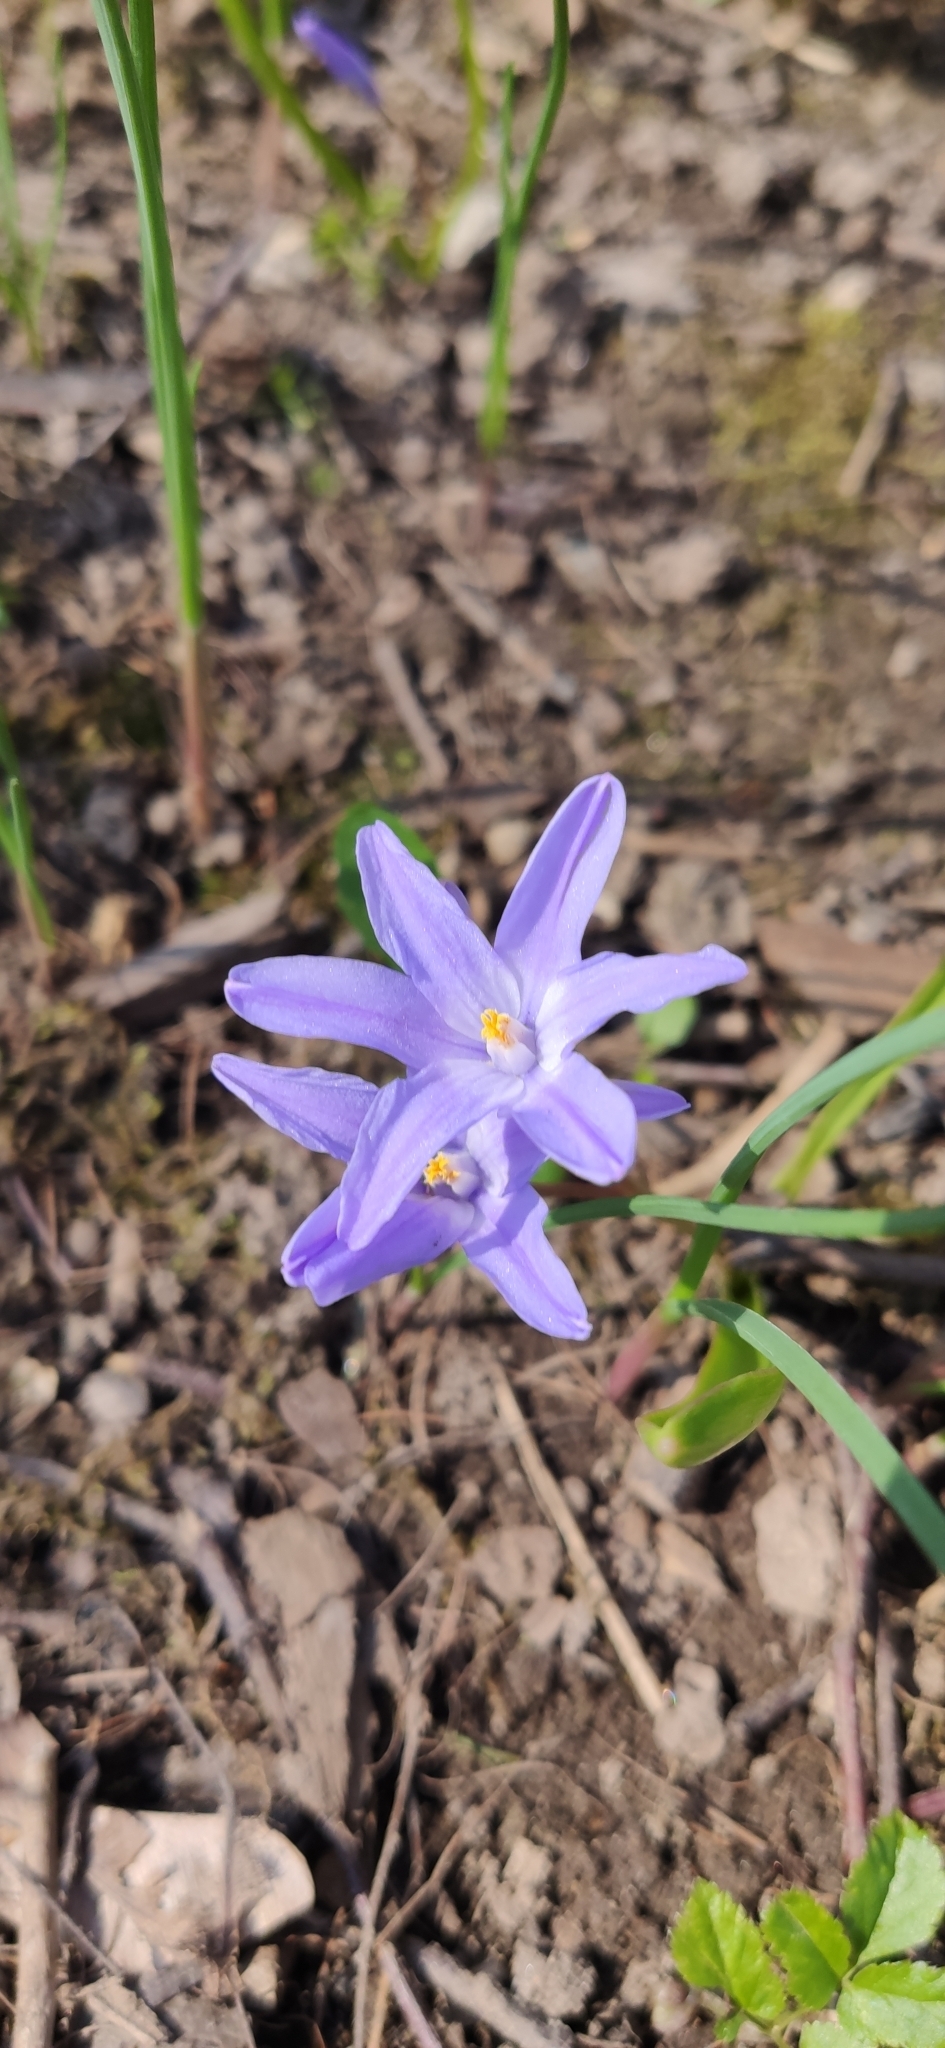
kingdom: Plantae
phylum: Tracheophyta
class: Liliopsida
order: Asparagales
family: Asparagaceae
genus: Scilla
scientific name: Scilla luciliae
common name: Boissier's glory-of-the-snow
